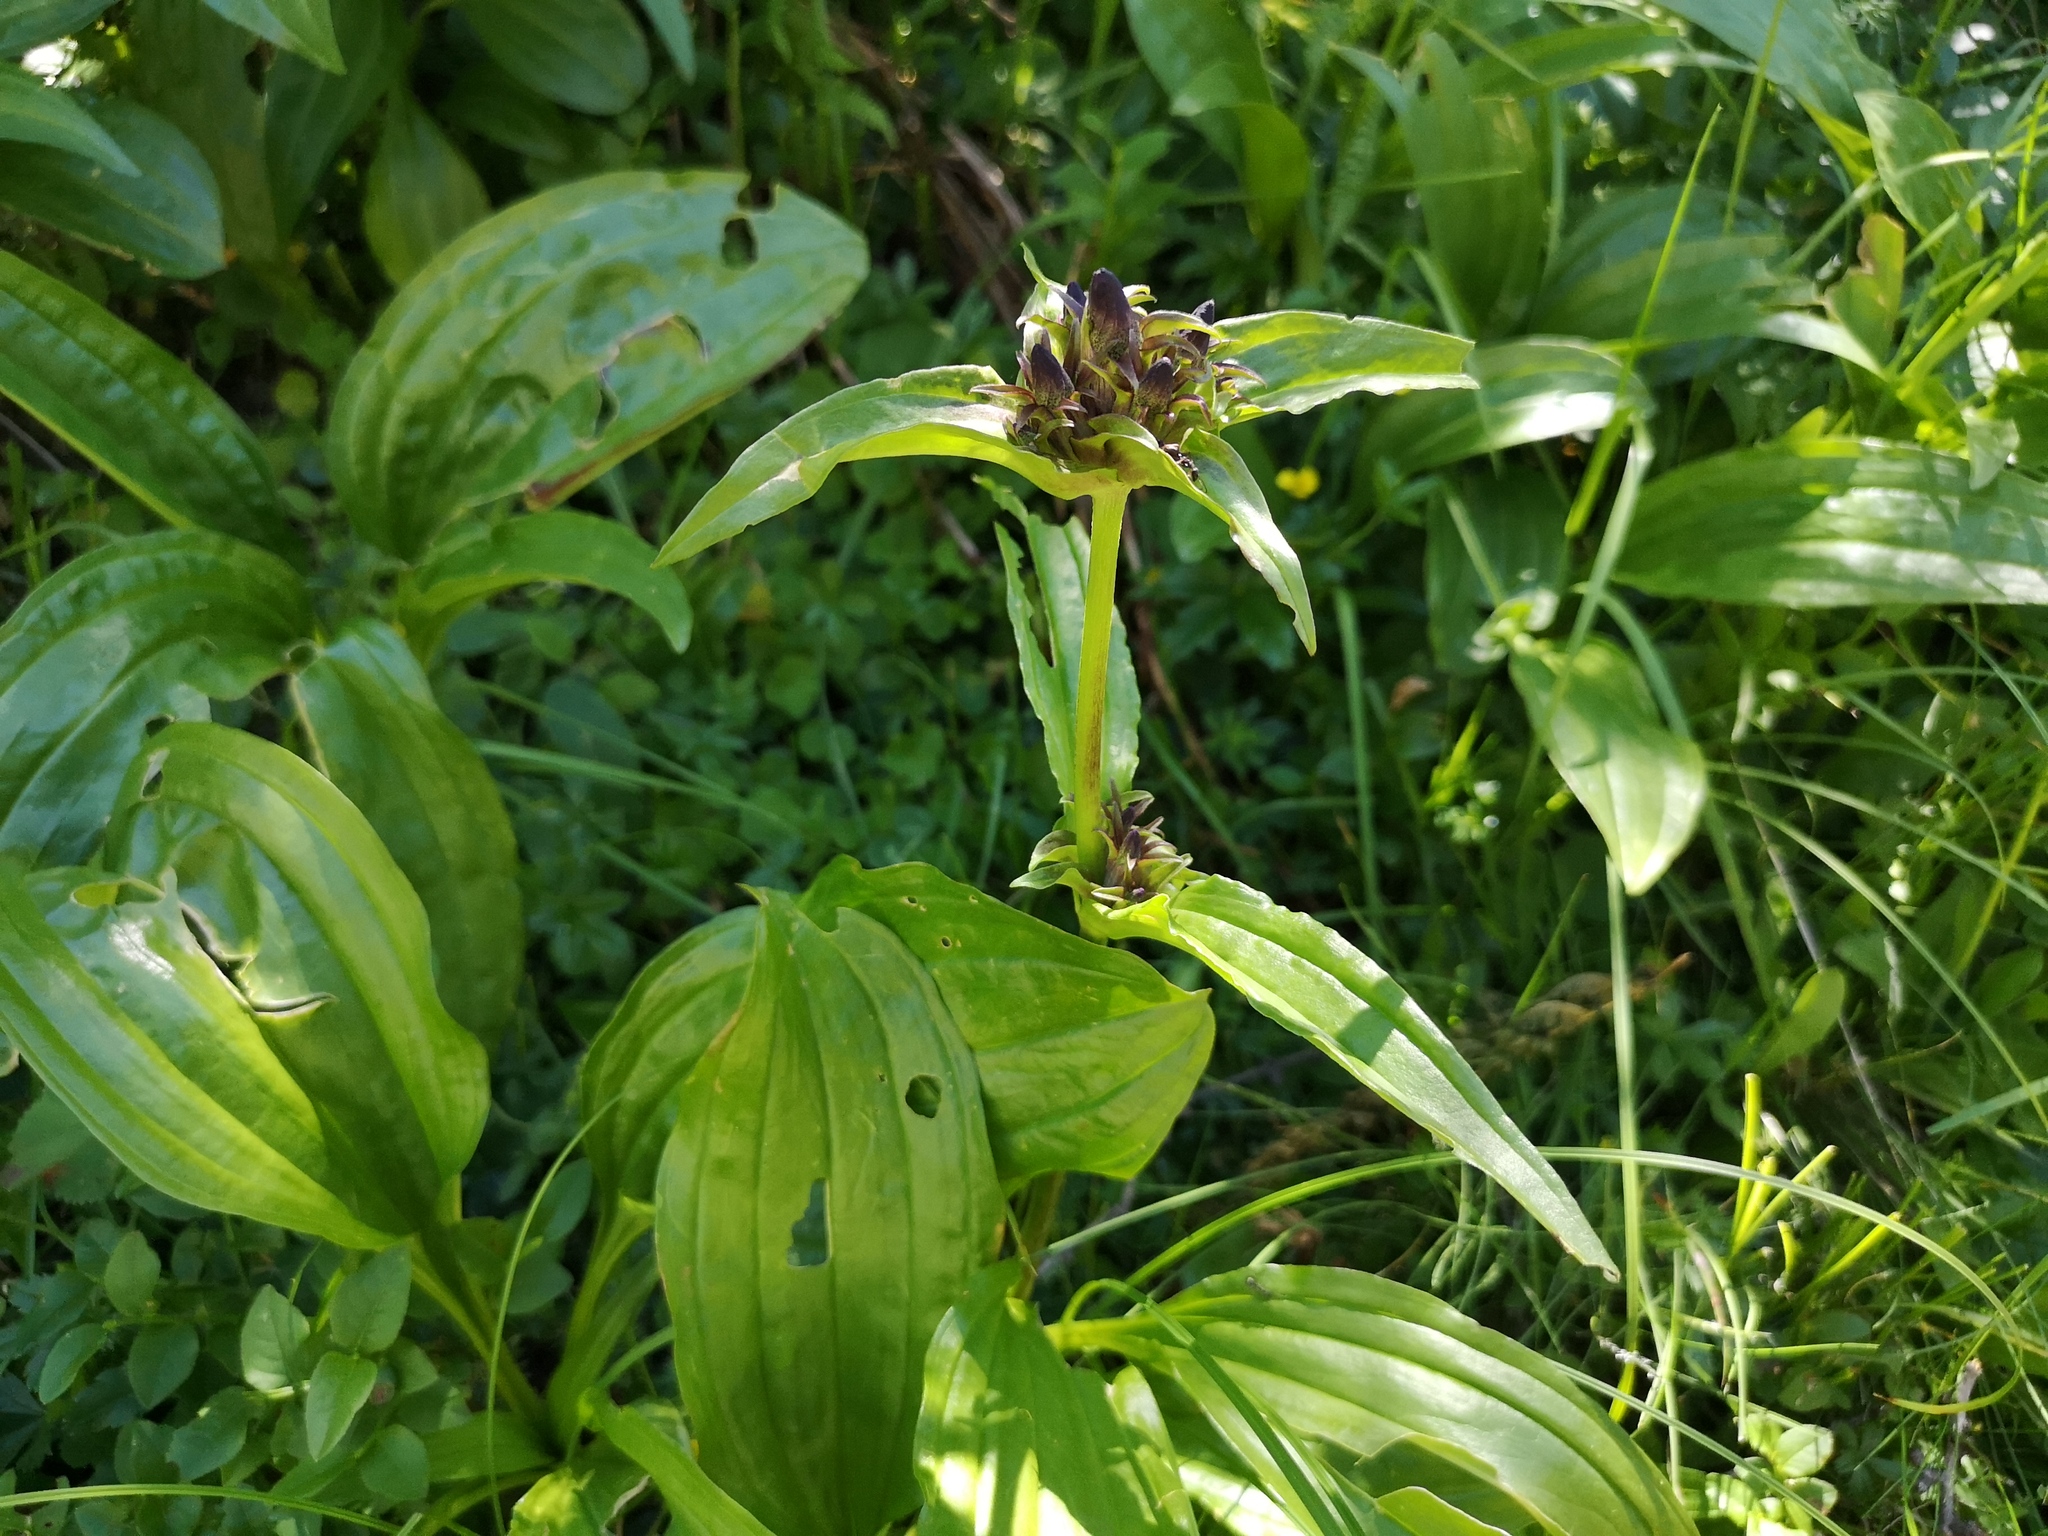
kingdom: Plantae
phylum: Tracheophyta
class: Magnoliopsida
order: Gentianales
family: Gentianaceae
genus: Gentiana
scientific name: Gentiana pannonica
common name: Hungarian gentian
